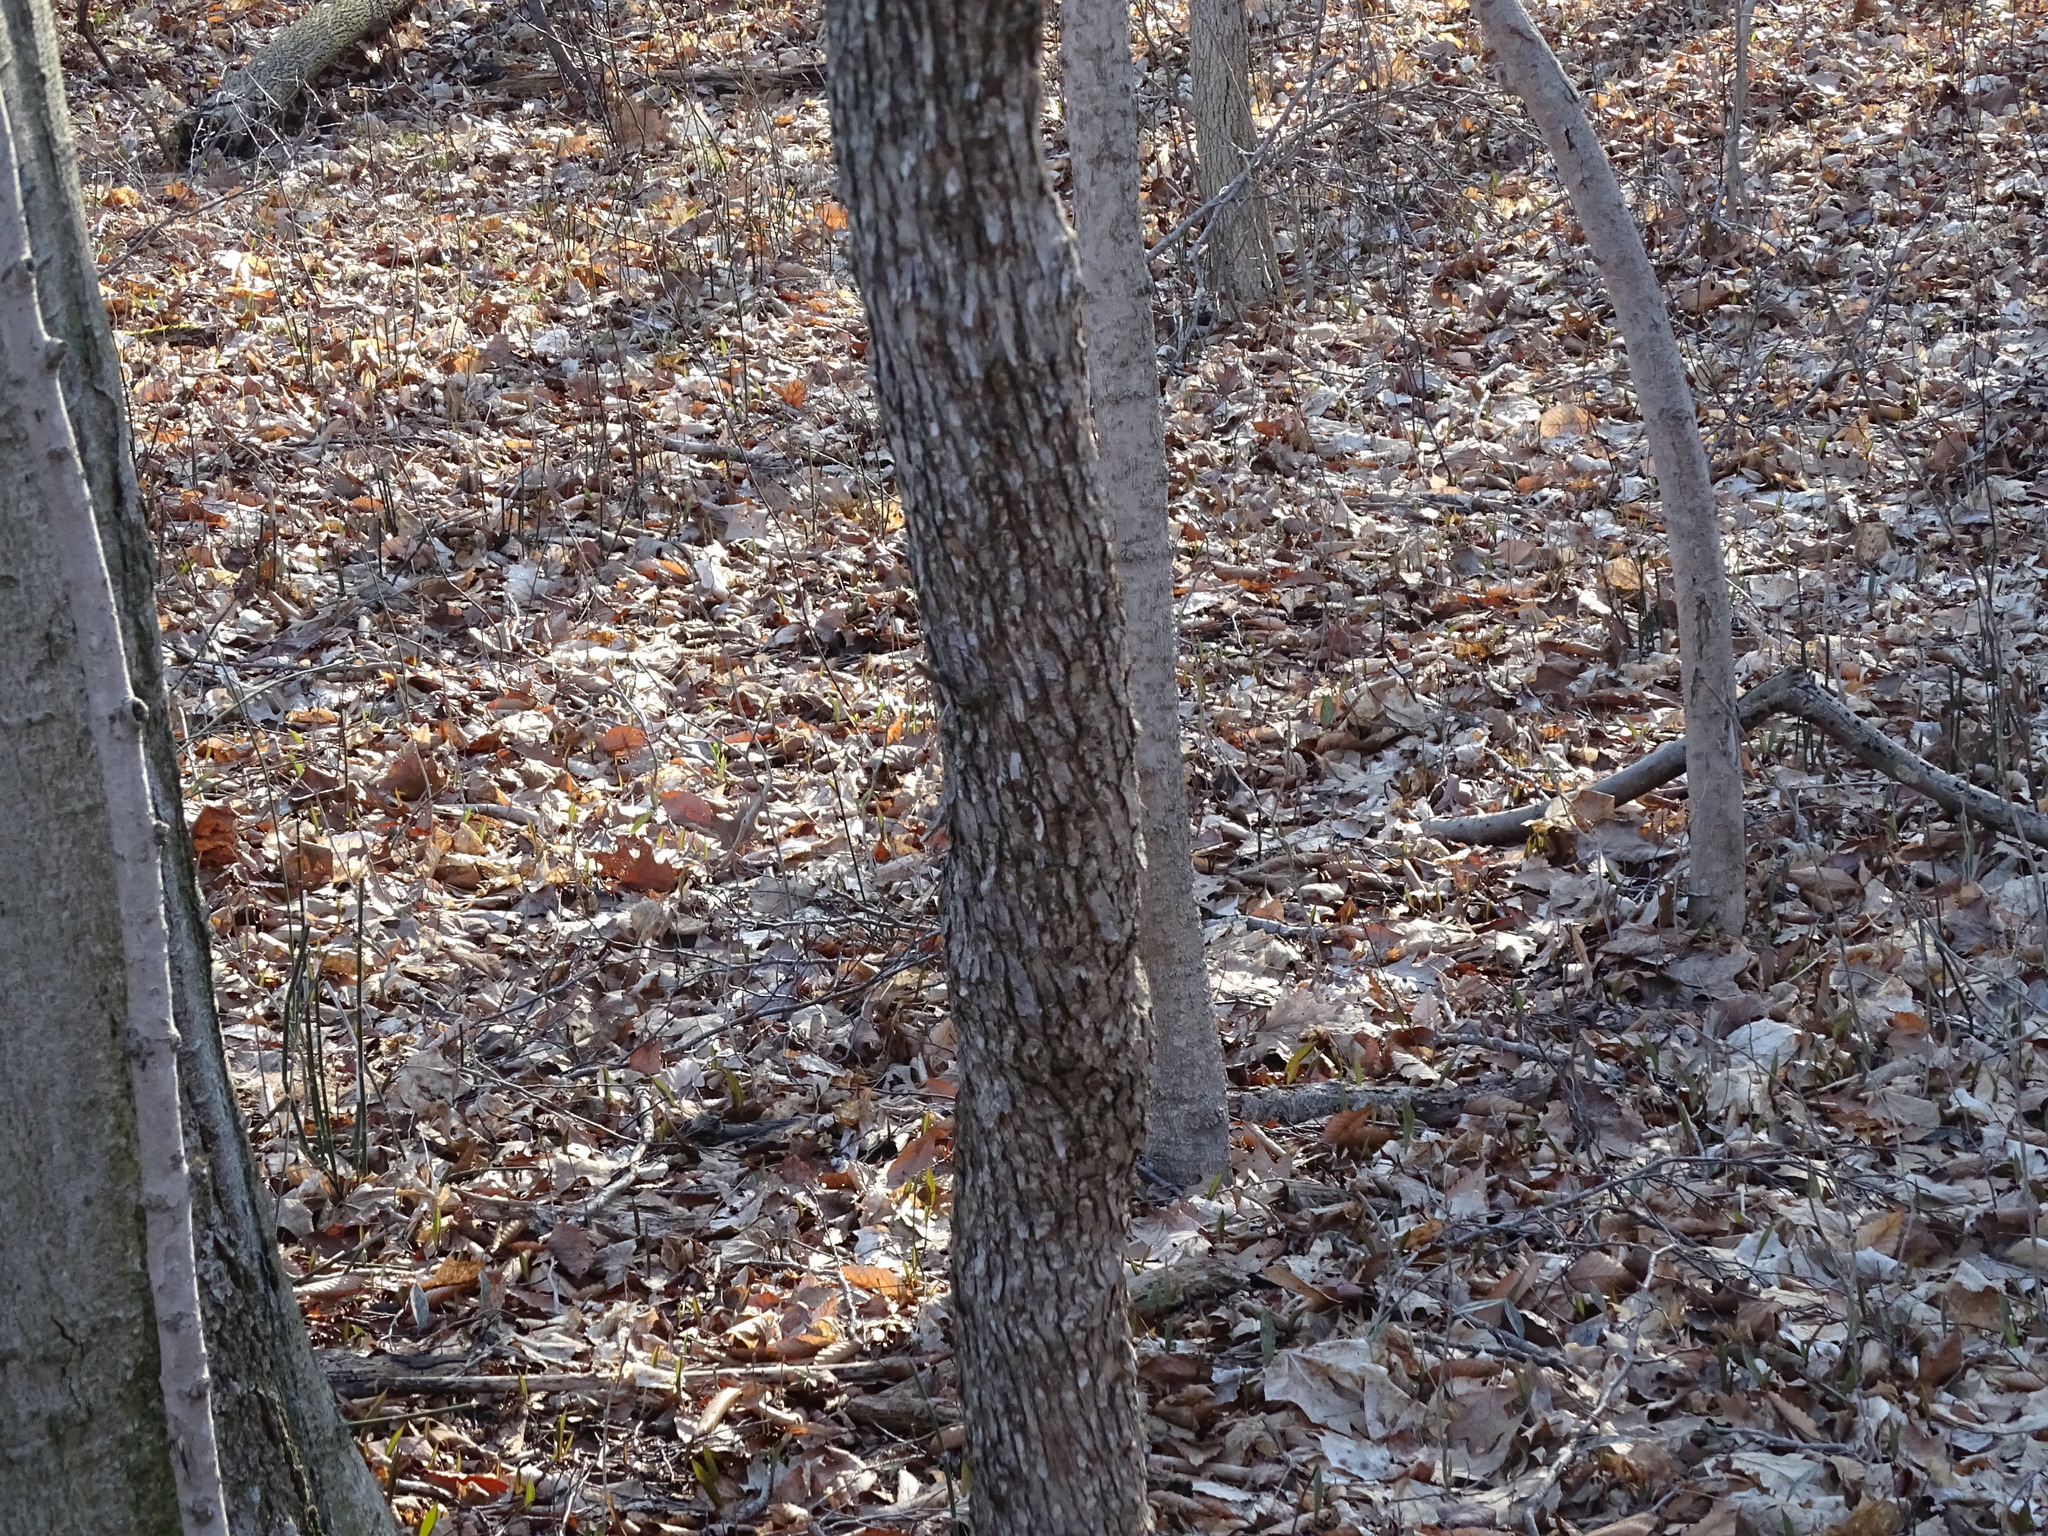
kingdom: Plantae
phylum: Tracheophyta
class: Magnoliopsida
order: Fagales
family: Betulaceae
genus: Ostrya
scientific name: Ostrya virginiana
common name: Ironwood
